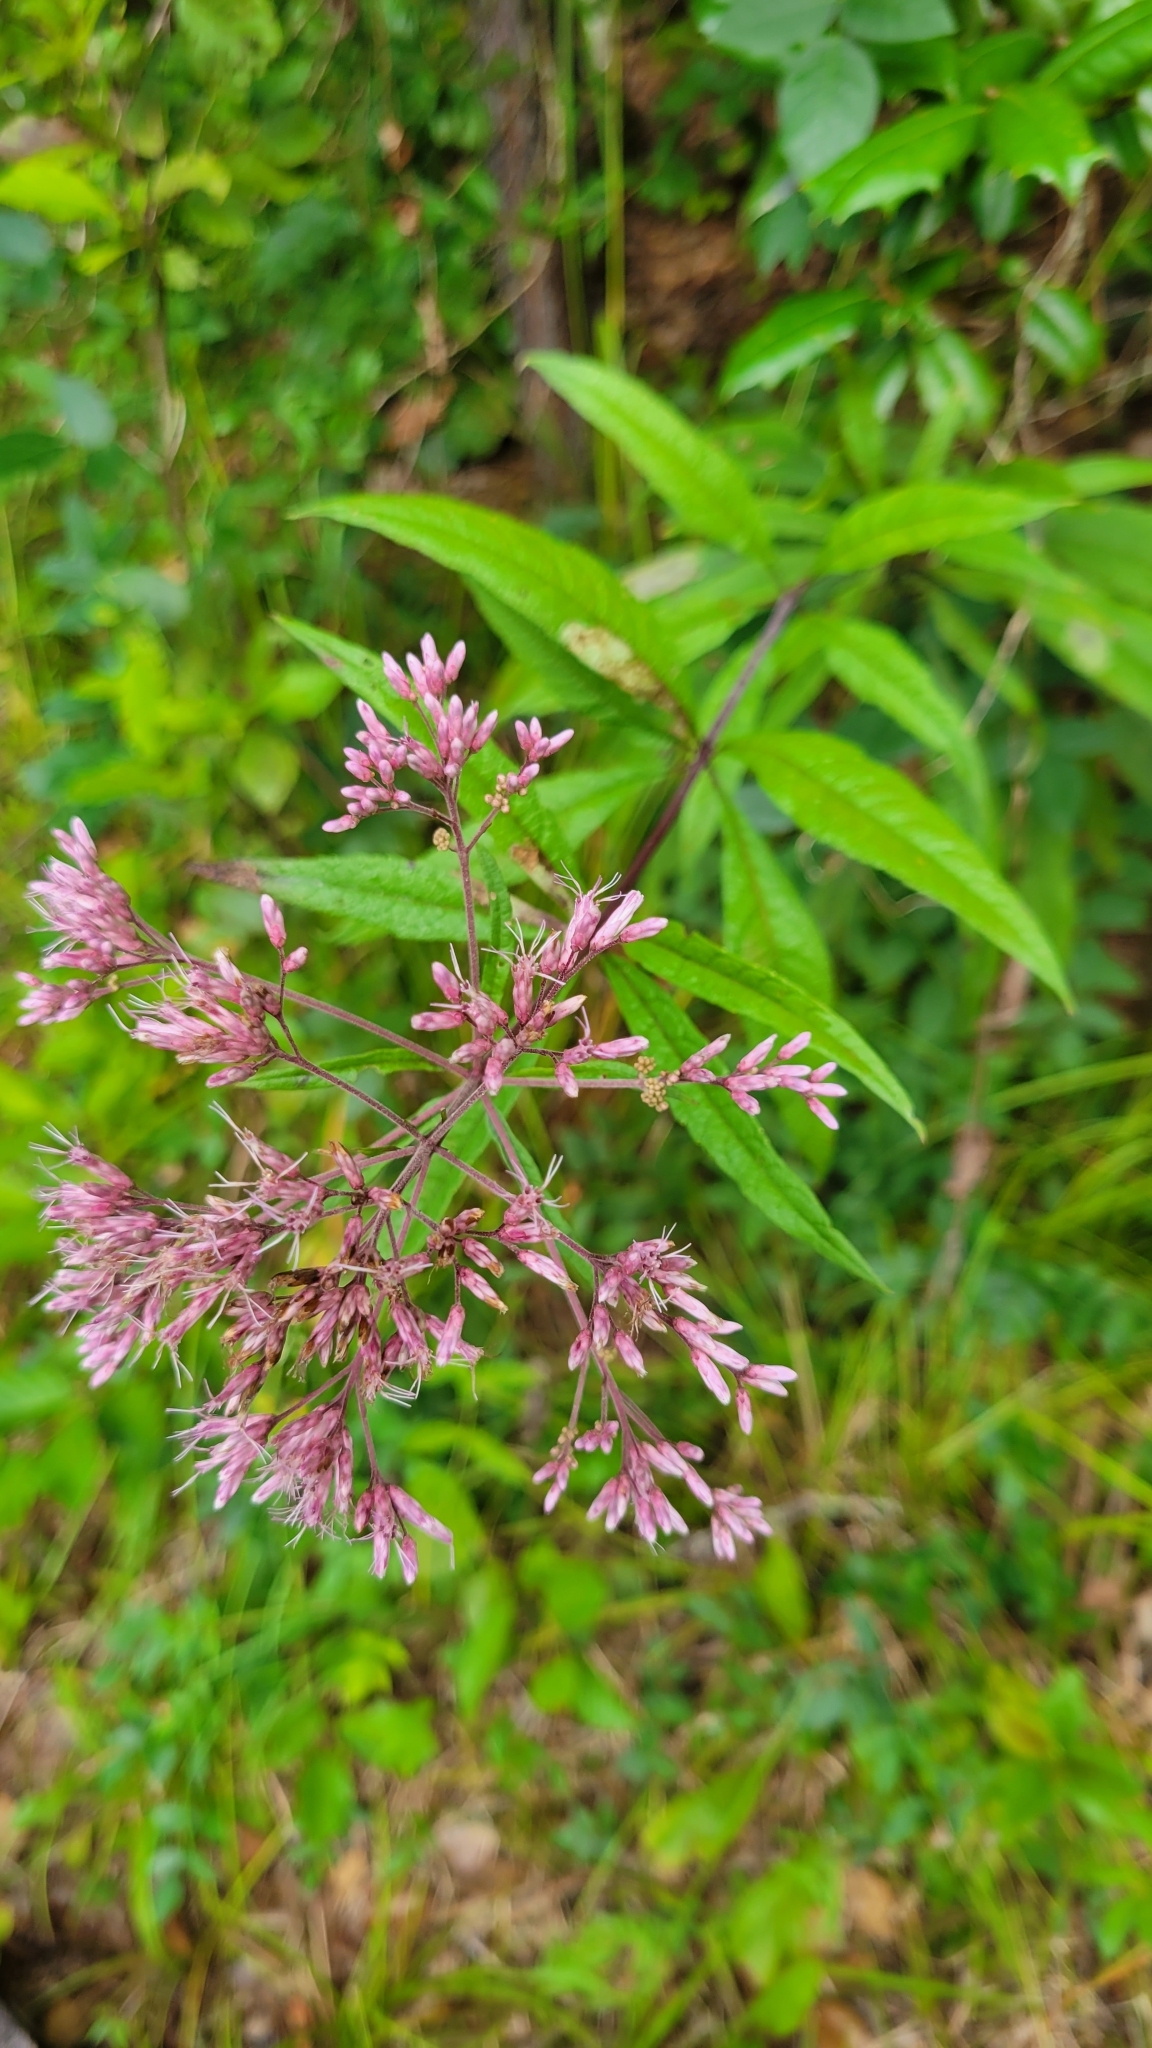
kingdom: Plantae
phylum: Tracheophyta
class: Magnoliopsida
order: Asterales
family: Asteraceae
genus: Eutrochium
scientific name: Eutrochium fistulosum
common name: Trumpetweed
